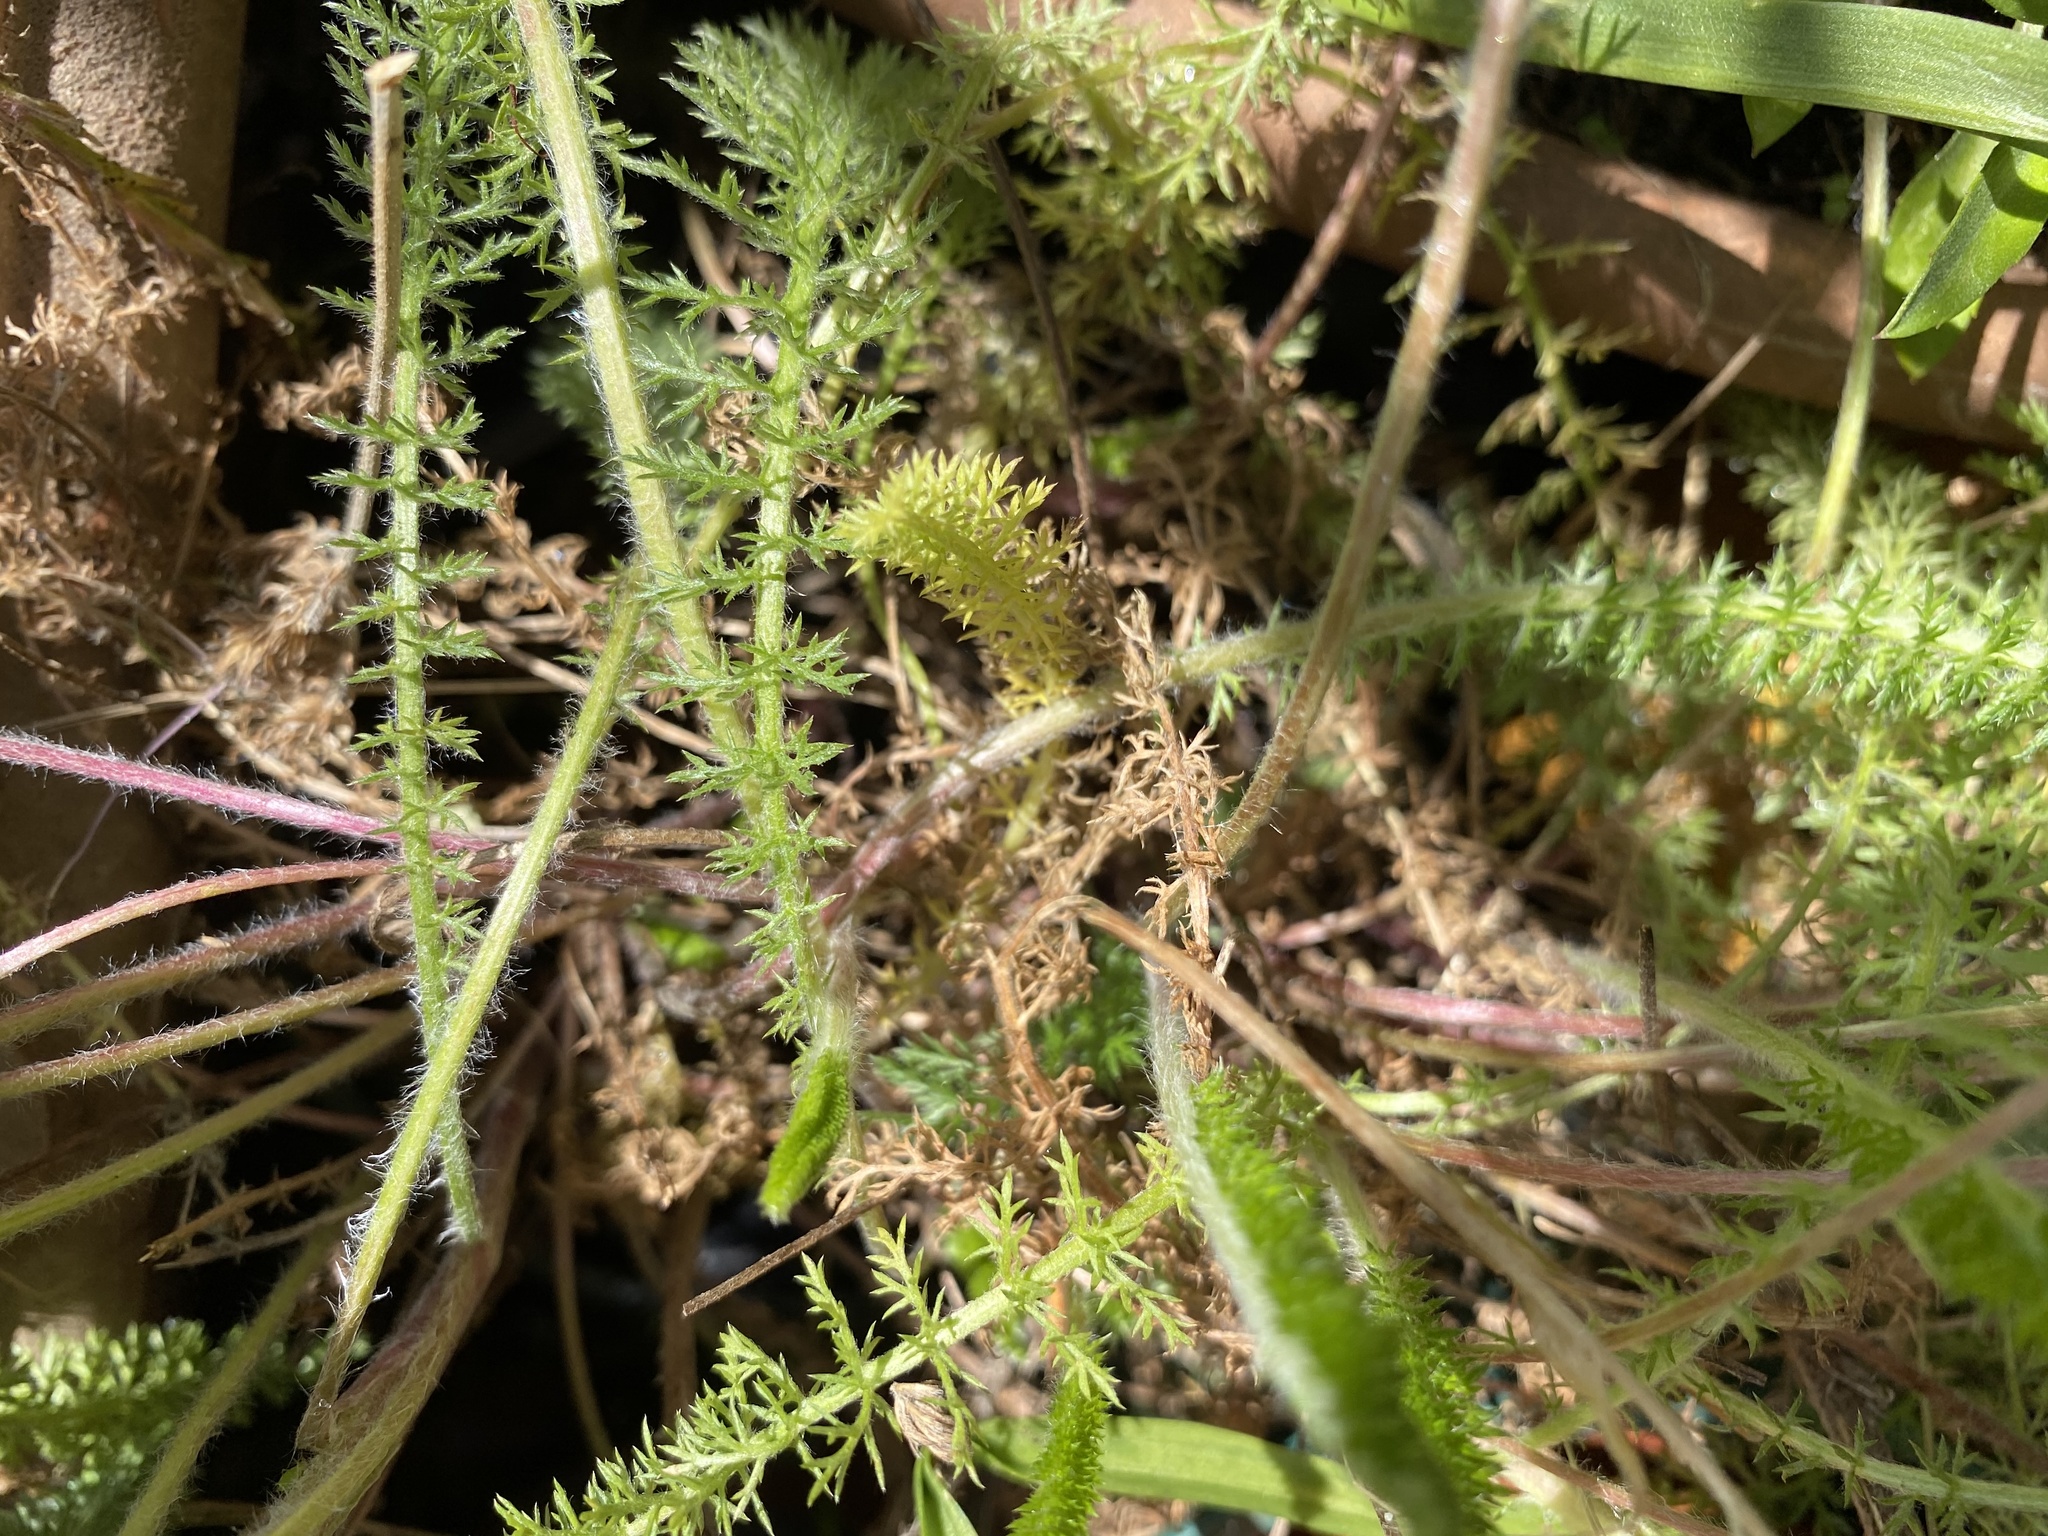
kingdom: Plantae
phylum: Tracheophyta
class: Magnoliopsida
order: Asterales
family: Asteraceae
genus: Achillea
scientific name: Achillea millefolium
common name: Yarrow
